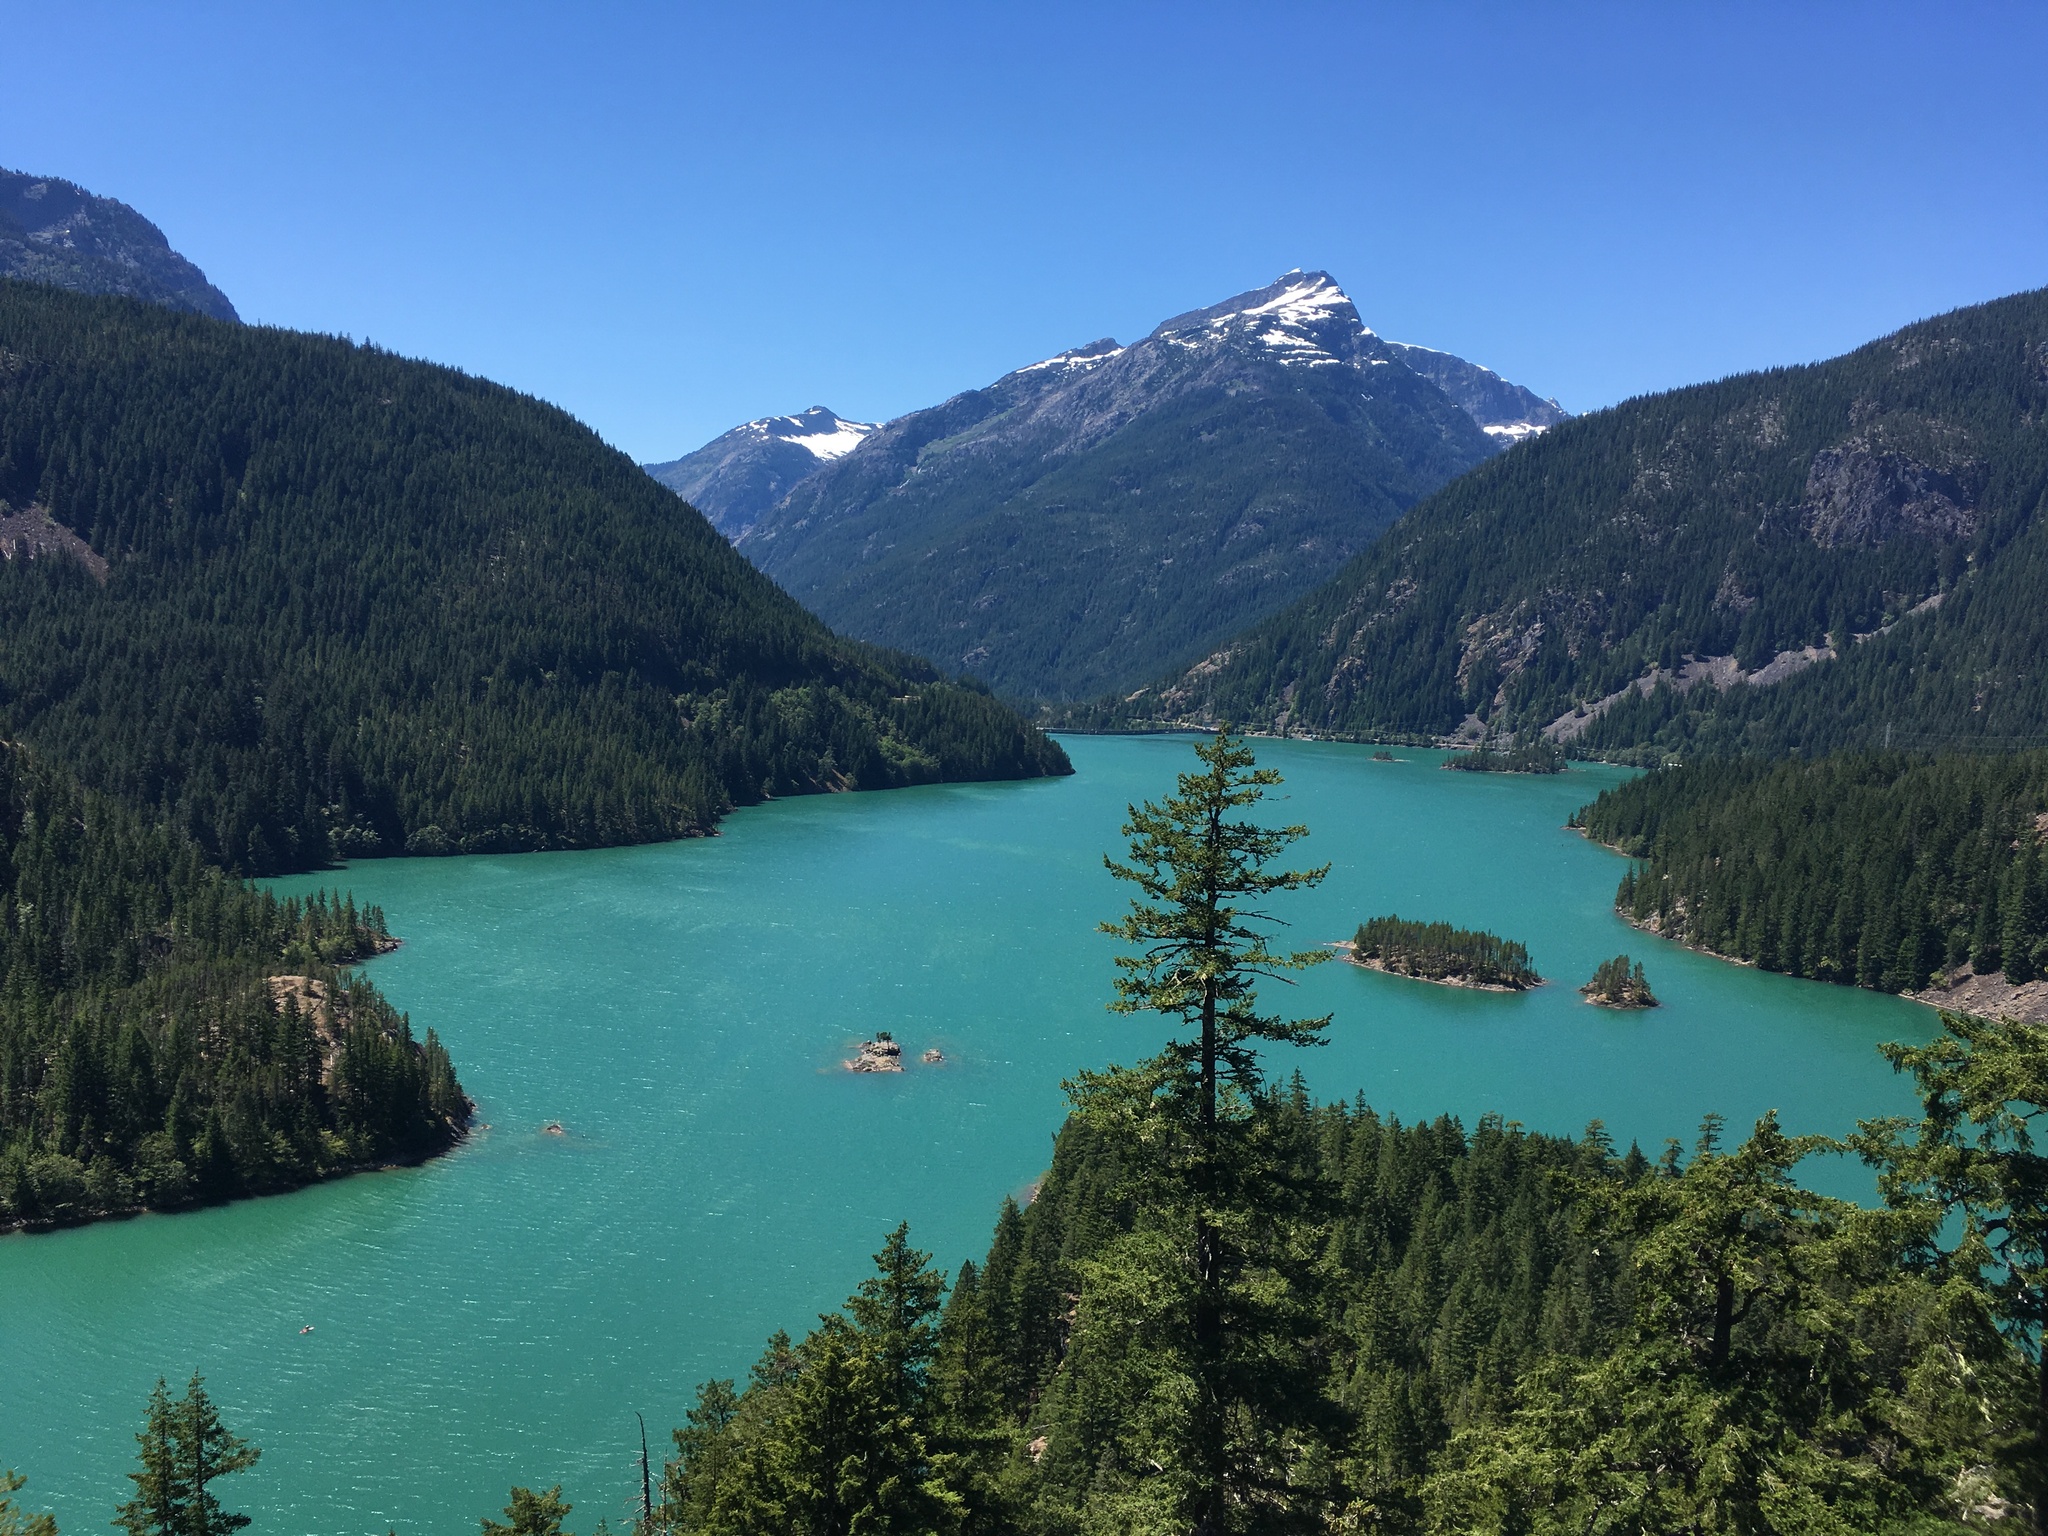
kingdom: Plantae
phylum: Tracheophyta
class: Pinopsida
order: Pinales
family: Pinaceae
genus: Pseudotsuga
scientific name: Pseudotsuga menziesii
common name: Douglas fir
